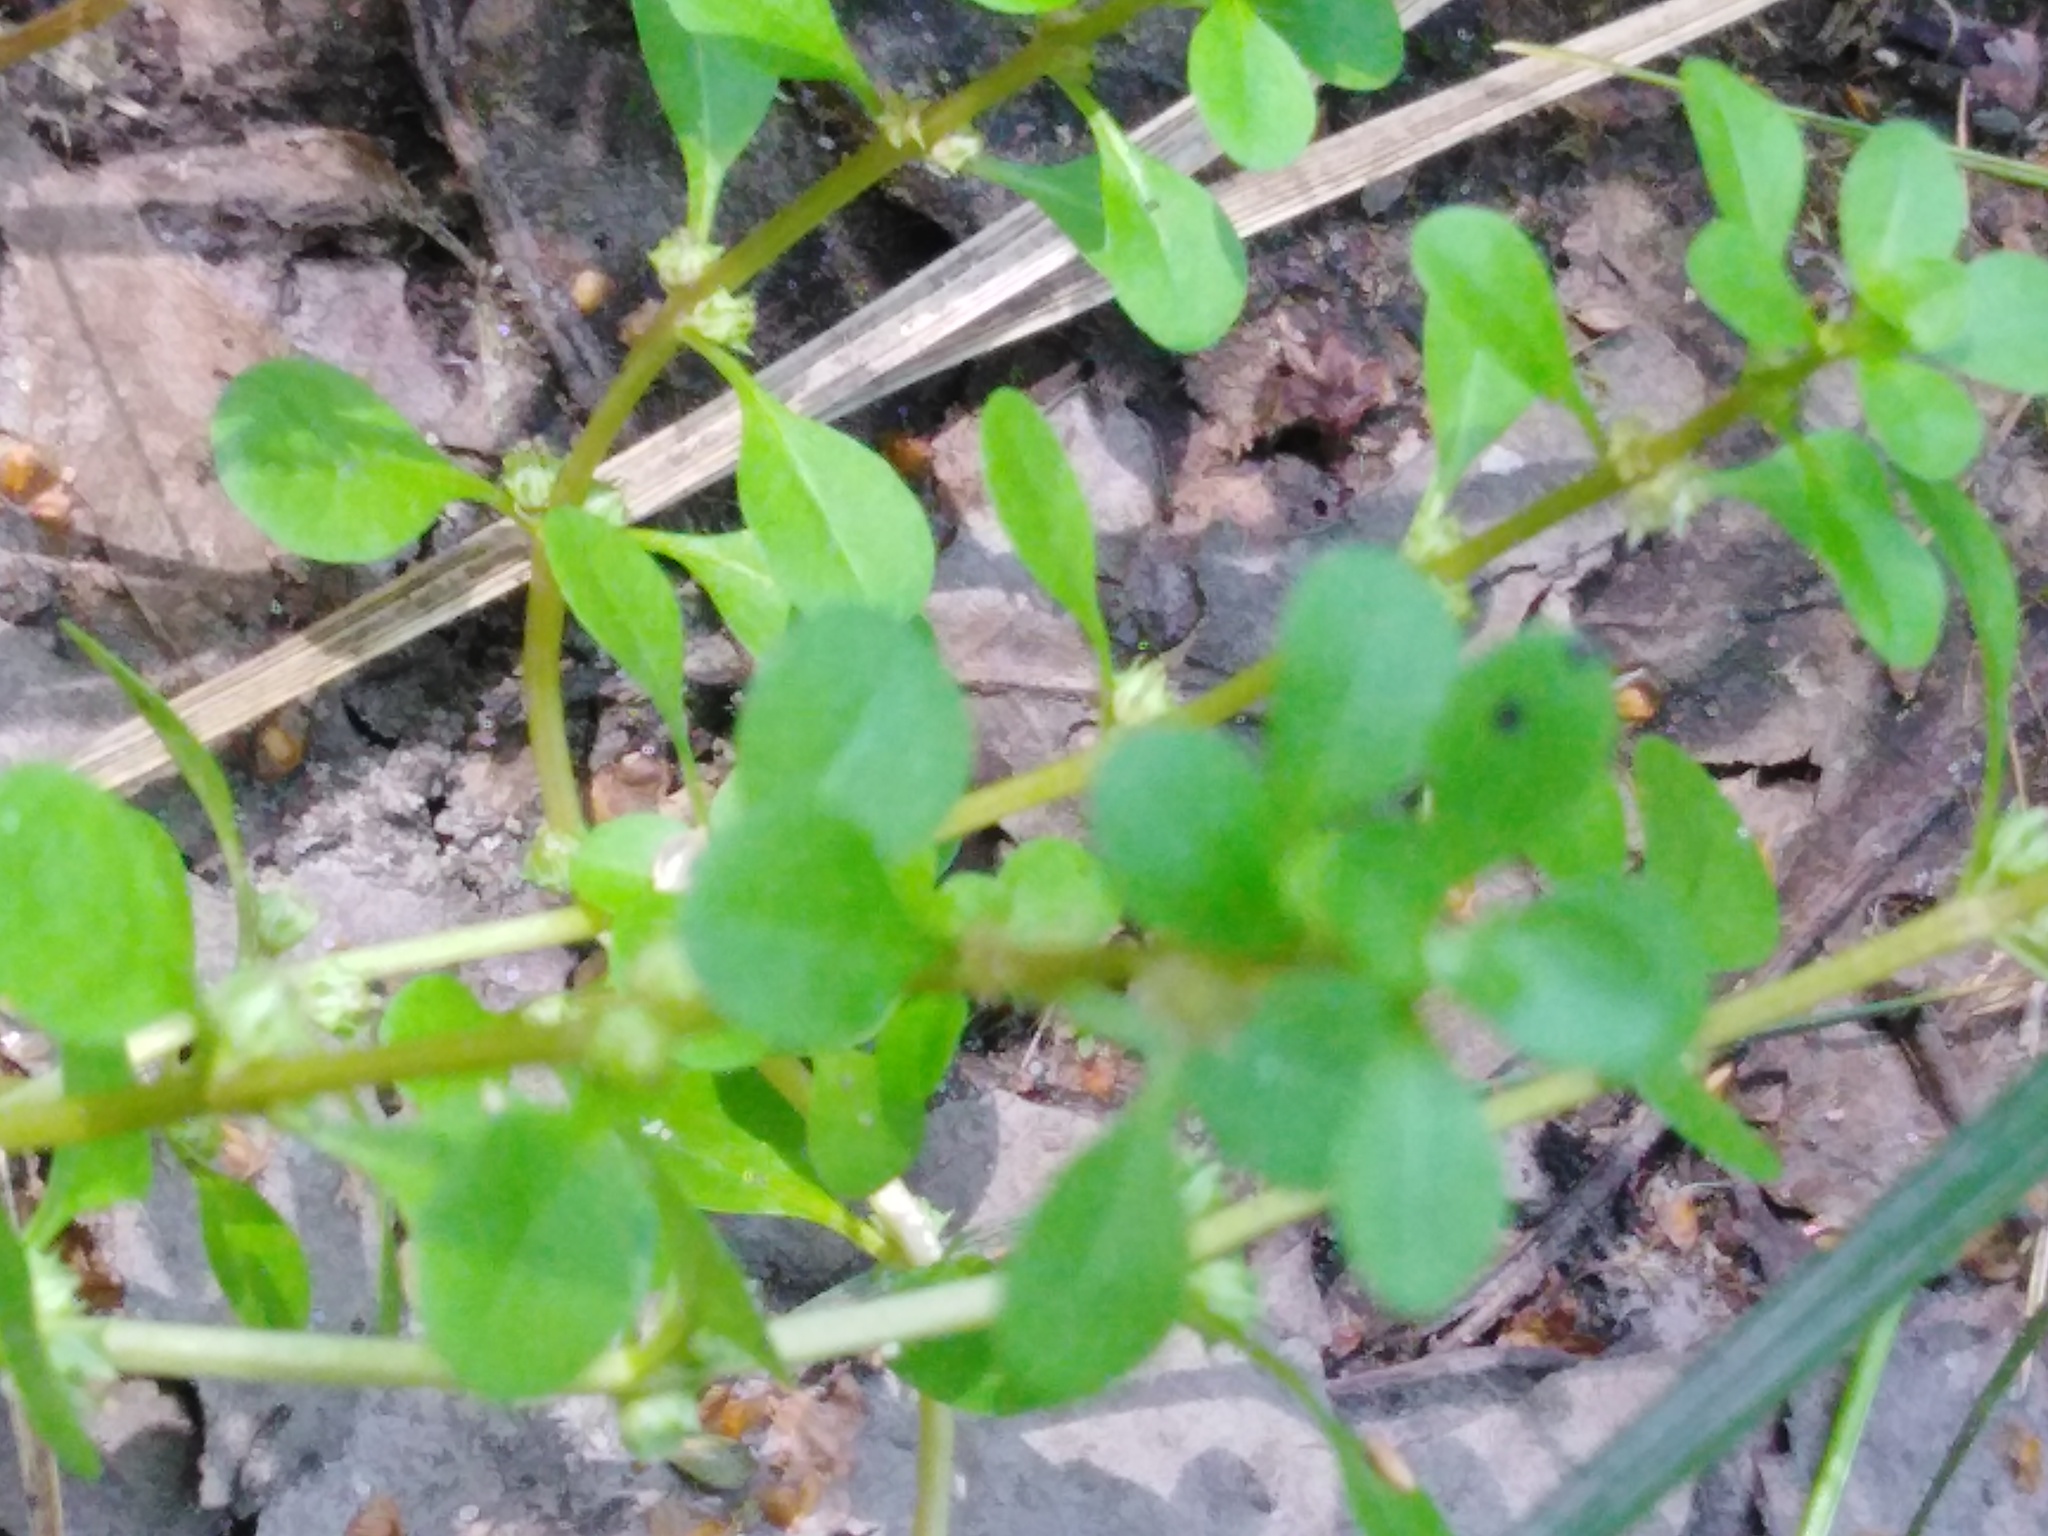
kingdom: Plantae
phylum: Tracheophyta
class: Magnoliopsida
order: Myrtales
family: Lythraceae
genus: Lythrum
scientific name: Lythrum portula
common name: Water purslane
